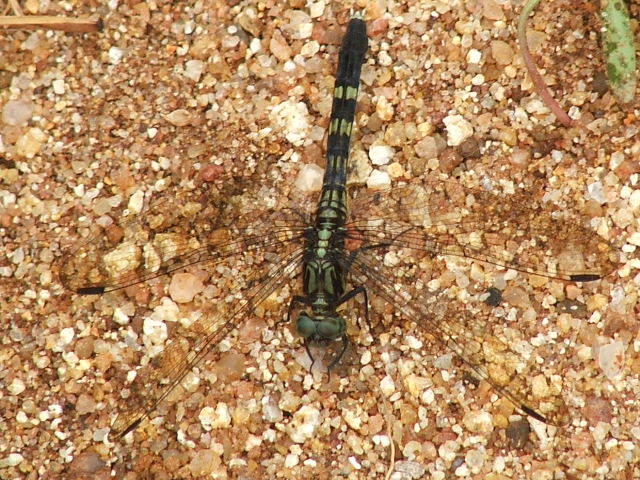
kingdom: Animalia
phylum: Arthropoda
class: Insecta
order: Odonata
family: Libellulidae
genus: Orthetrum
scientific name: Orthetrum julia
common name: Julia skimmer
